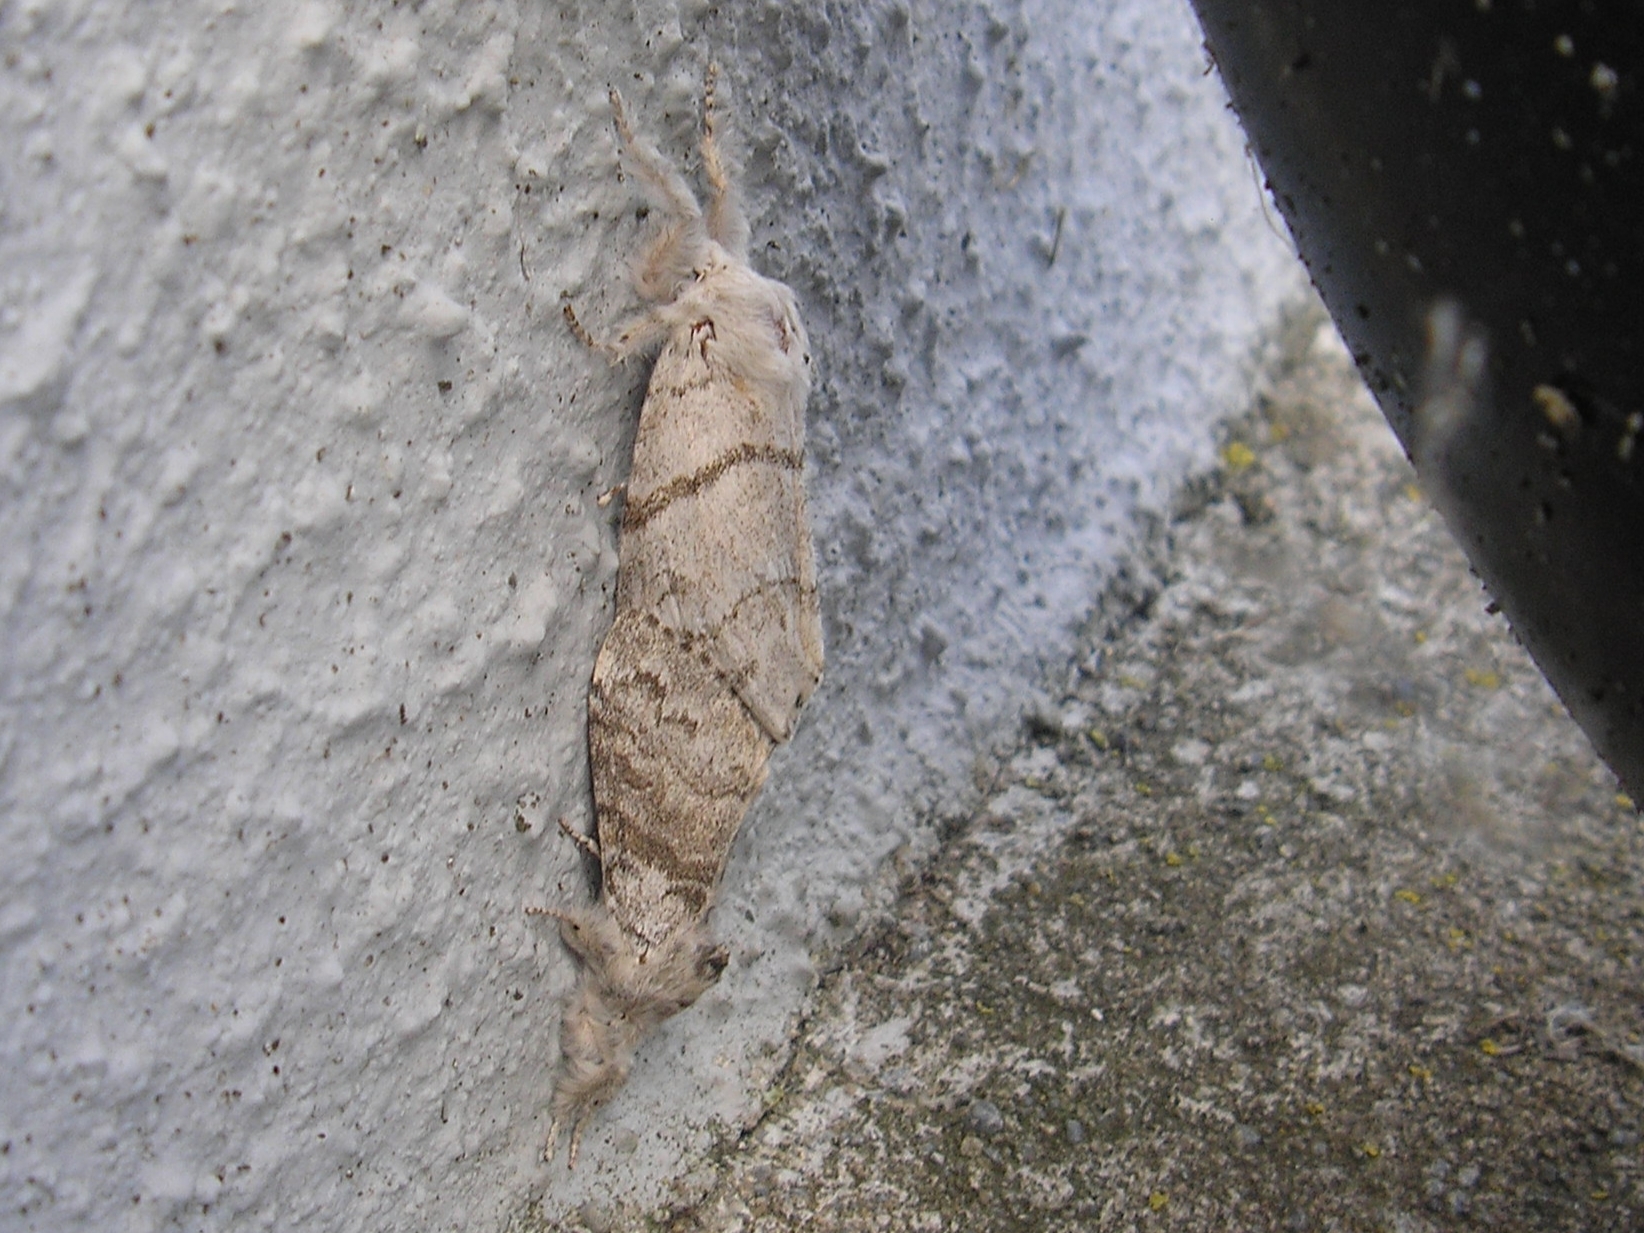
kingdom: Animalia
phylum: Arthropoda
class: Insecta
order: Lepidoptera
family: Erebidae
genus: Calliteara
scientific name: Calliteara pudibunda
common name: Pale tussock
